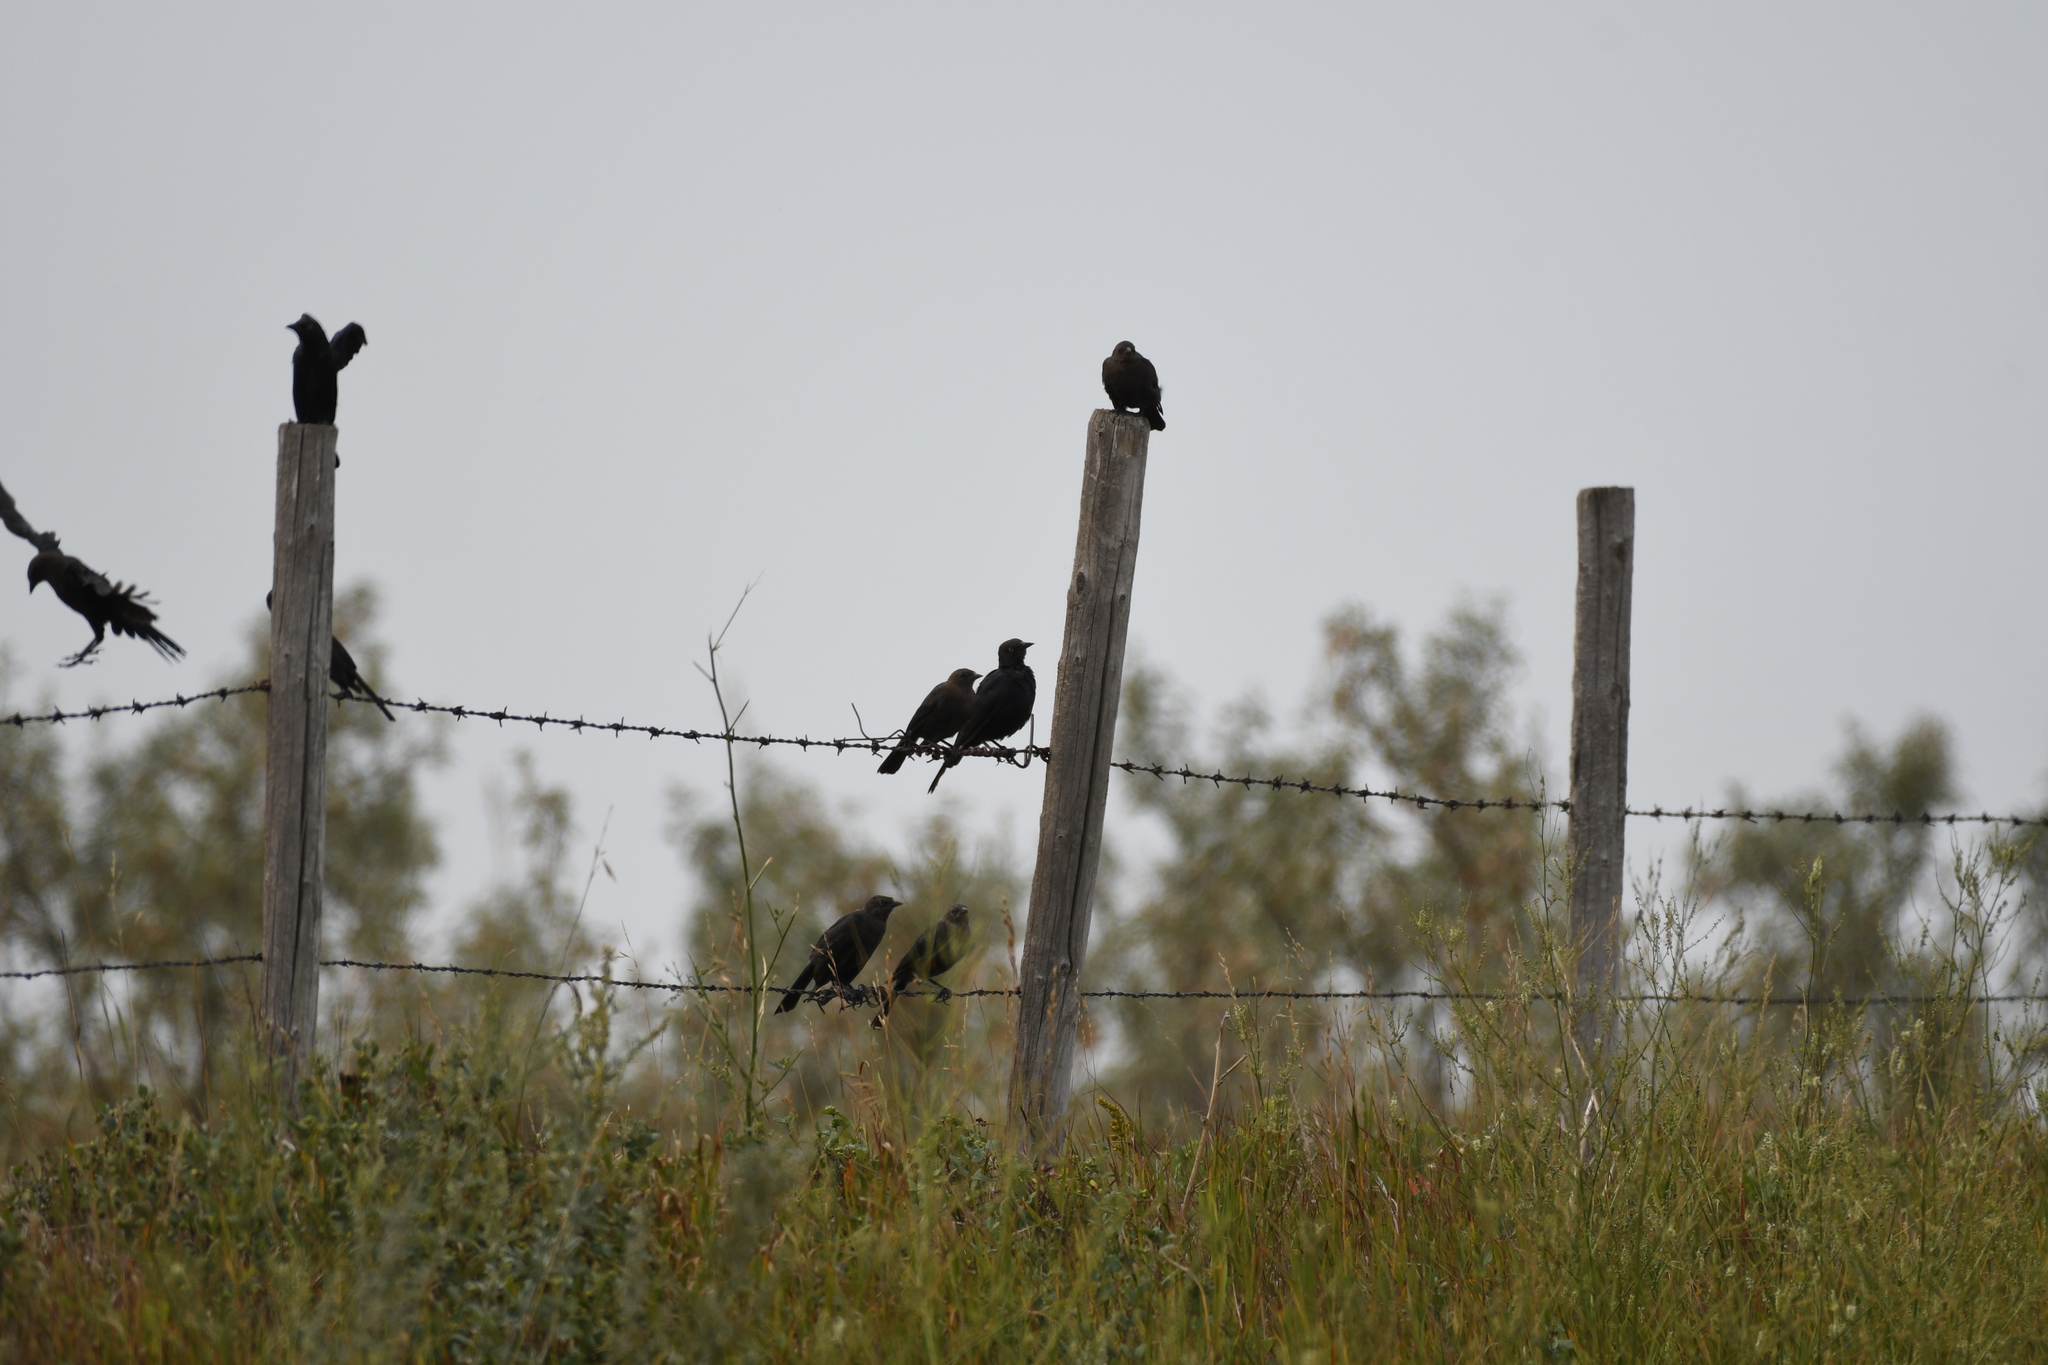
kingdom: Animalia
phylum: Chordata
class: Aves
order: Passeriformes
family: Icteridae
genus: Euphagus
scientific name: Euphagus cyanocephalus
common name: Brewer's blackbird
